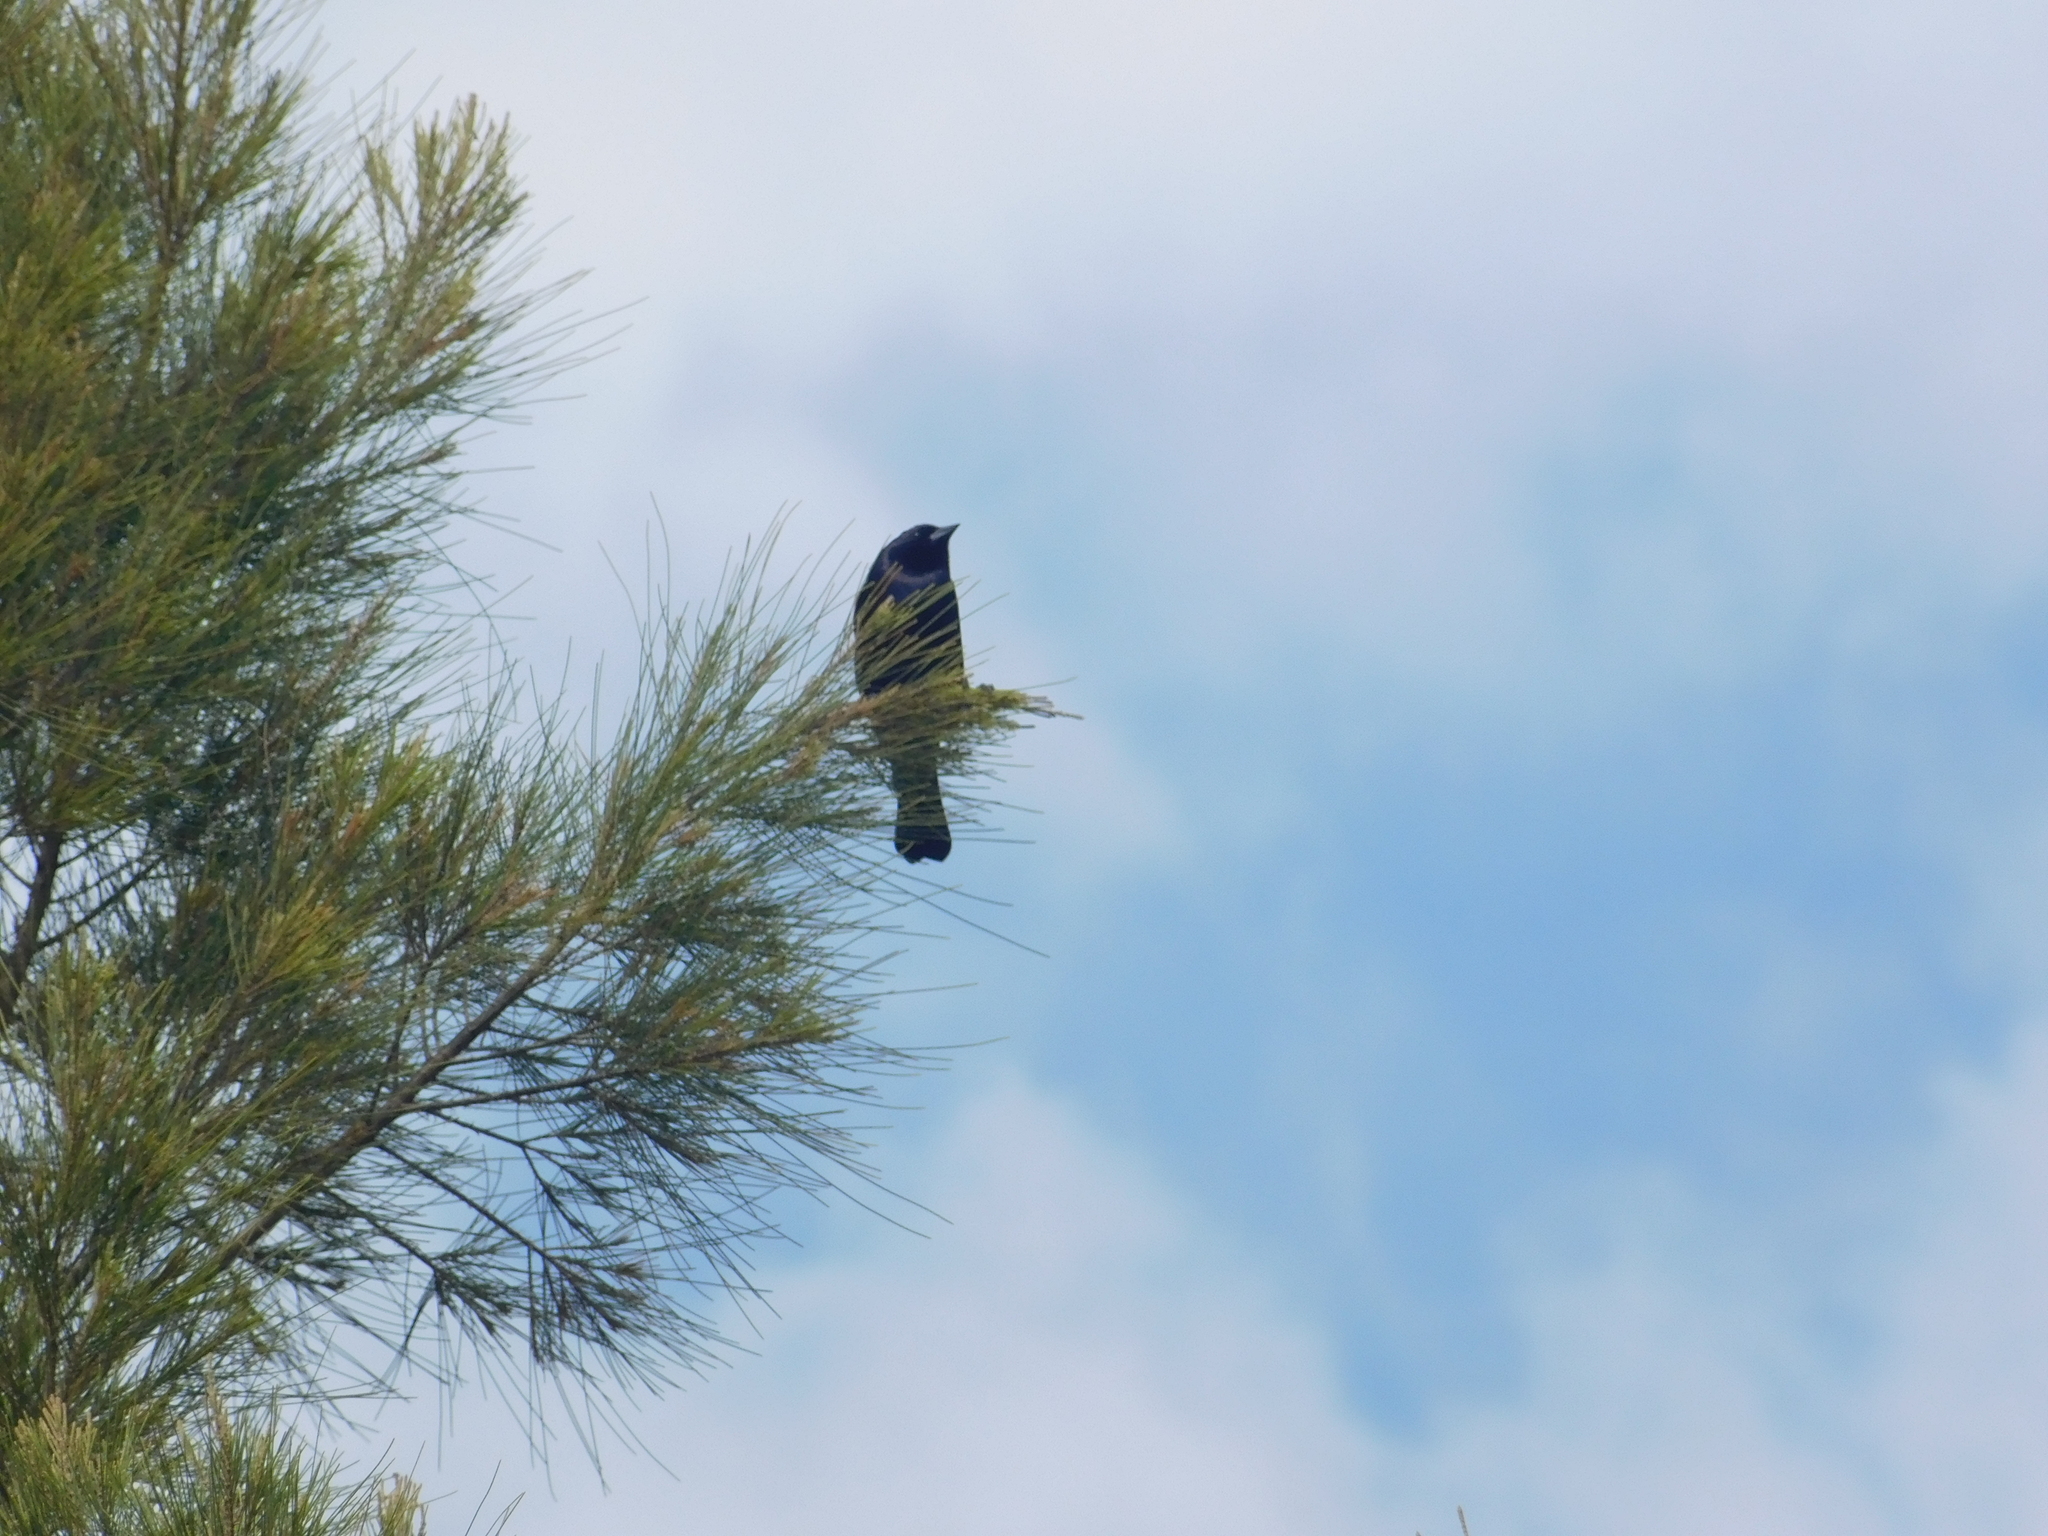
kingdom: Animalia
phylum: Chordata
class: Aves
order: Passeriformes
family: Icteridae
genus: Molothrus
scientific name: Molothrus bonariensis
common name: Shiny cowbird
